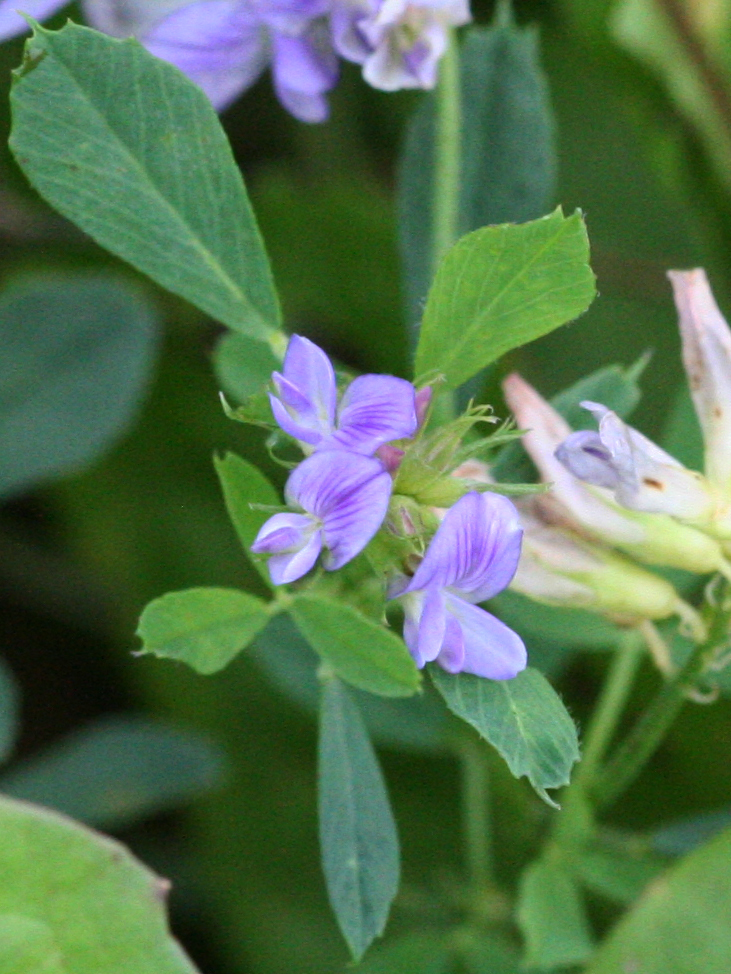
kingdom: Plantae
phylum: Tracheophyta
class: Magnoliopsida
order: Fabales
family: Fabaceae
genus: Medicago
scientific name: Medicago sativa
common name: Alfalfa
